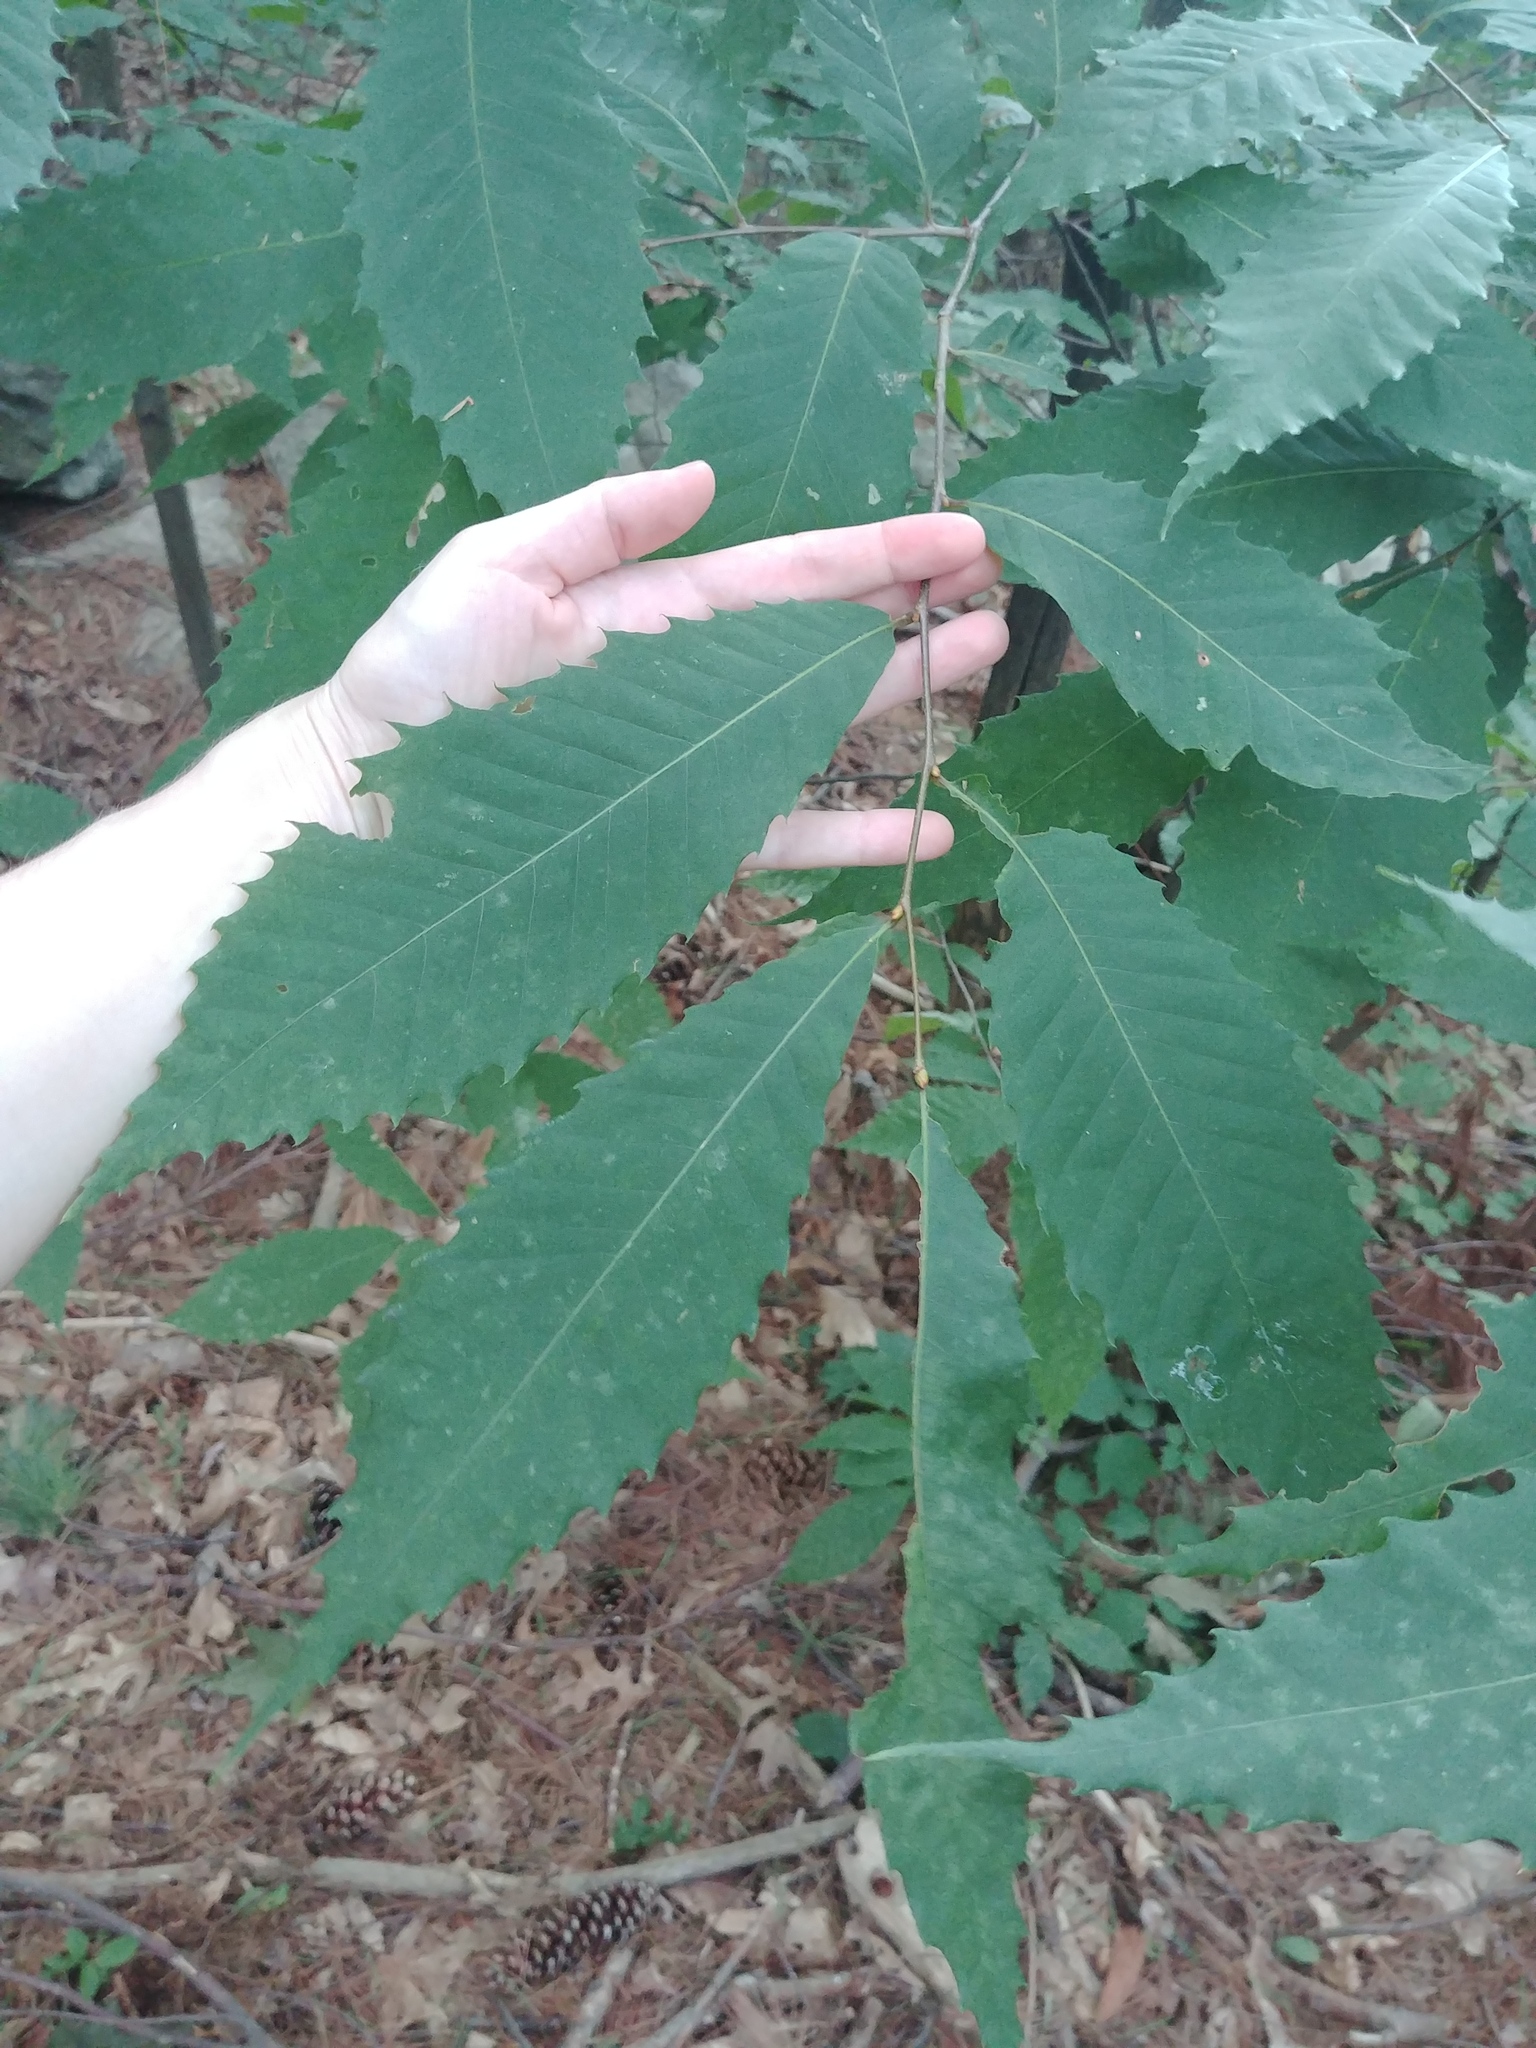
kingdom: Plantae
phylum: Tracheophyta
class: Magnoliopsida
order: Fagales
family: Fagaceae
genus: Castanea
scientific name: Castanea dentata
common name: American chestnut
